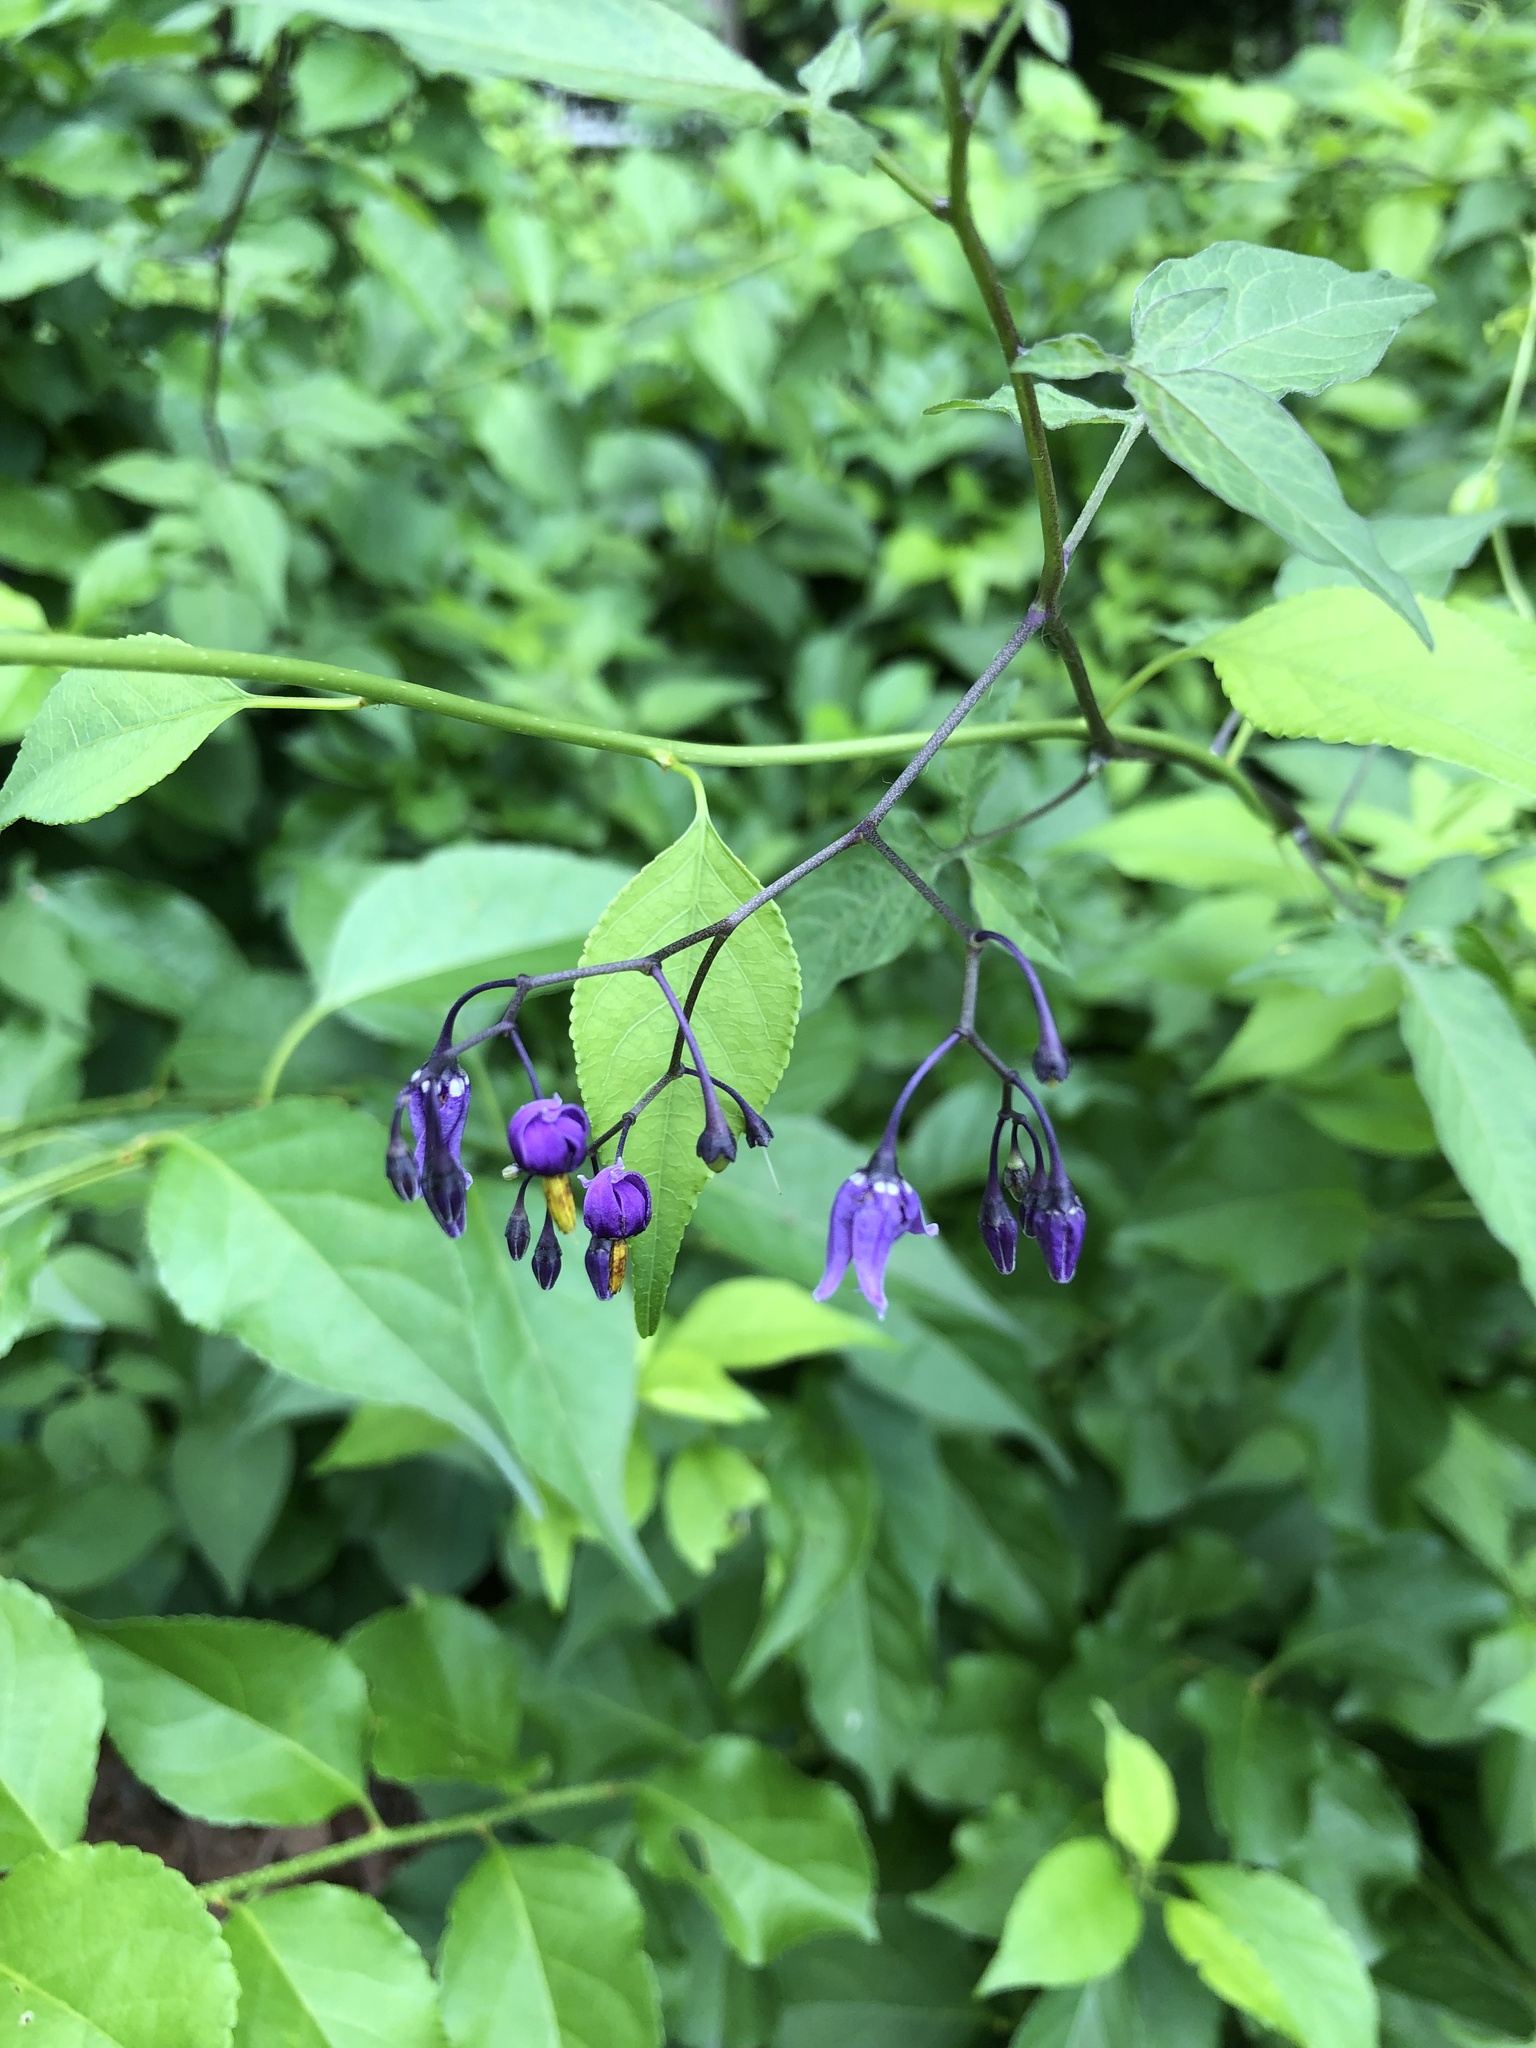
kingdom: Plantae
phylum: Tracheophyta
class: Magnoliopsida
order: Solanales
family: Solanaceae
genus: Solanum
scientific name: Solanum dulcamara
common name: Climbing nightshade
